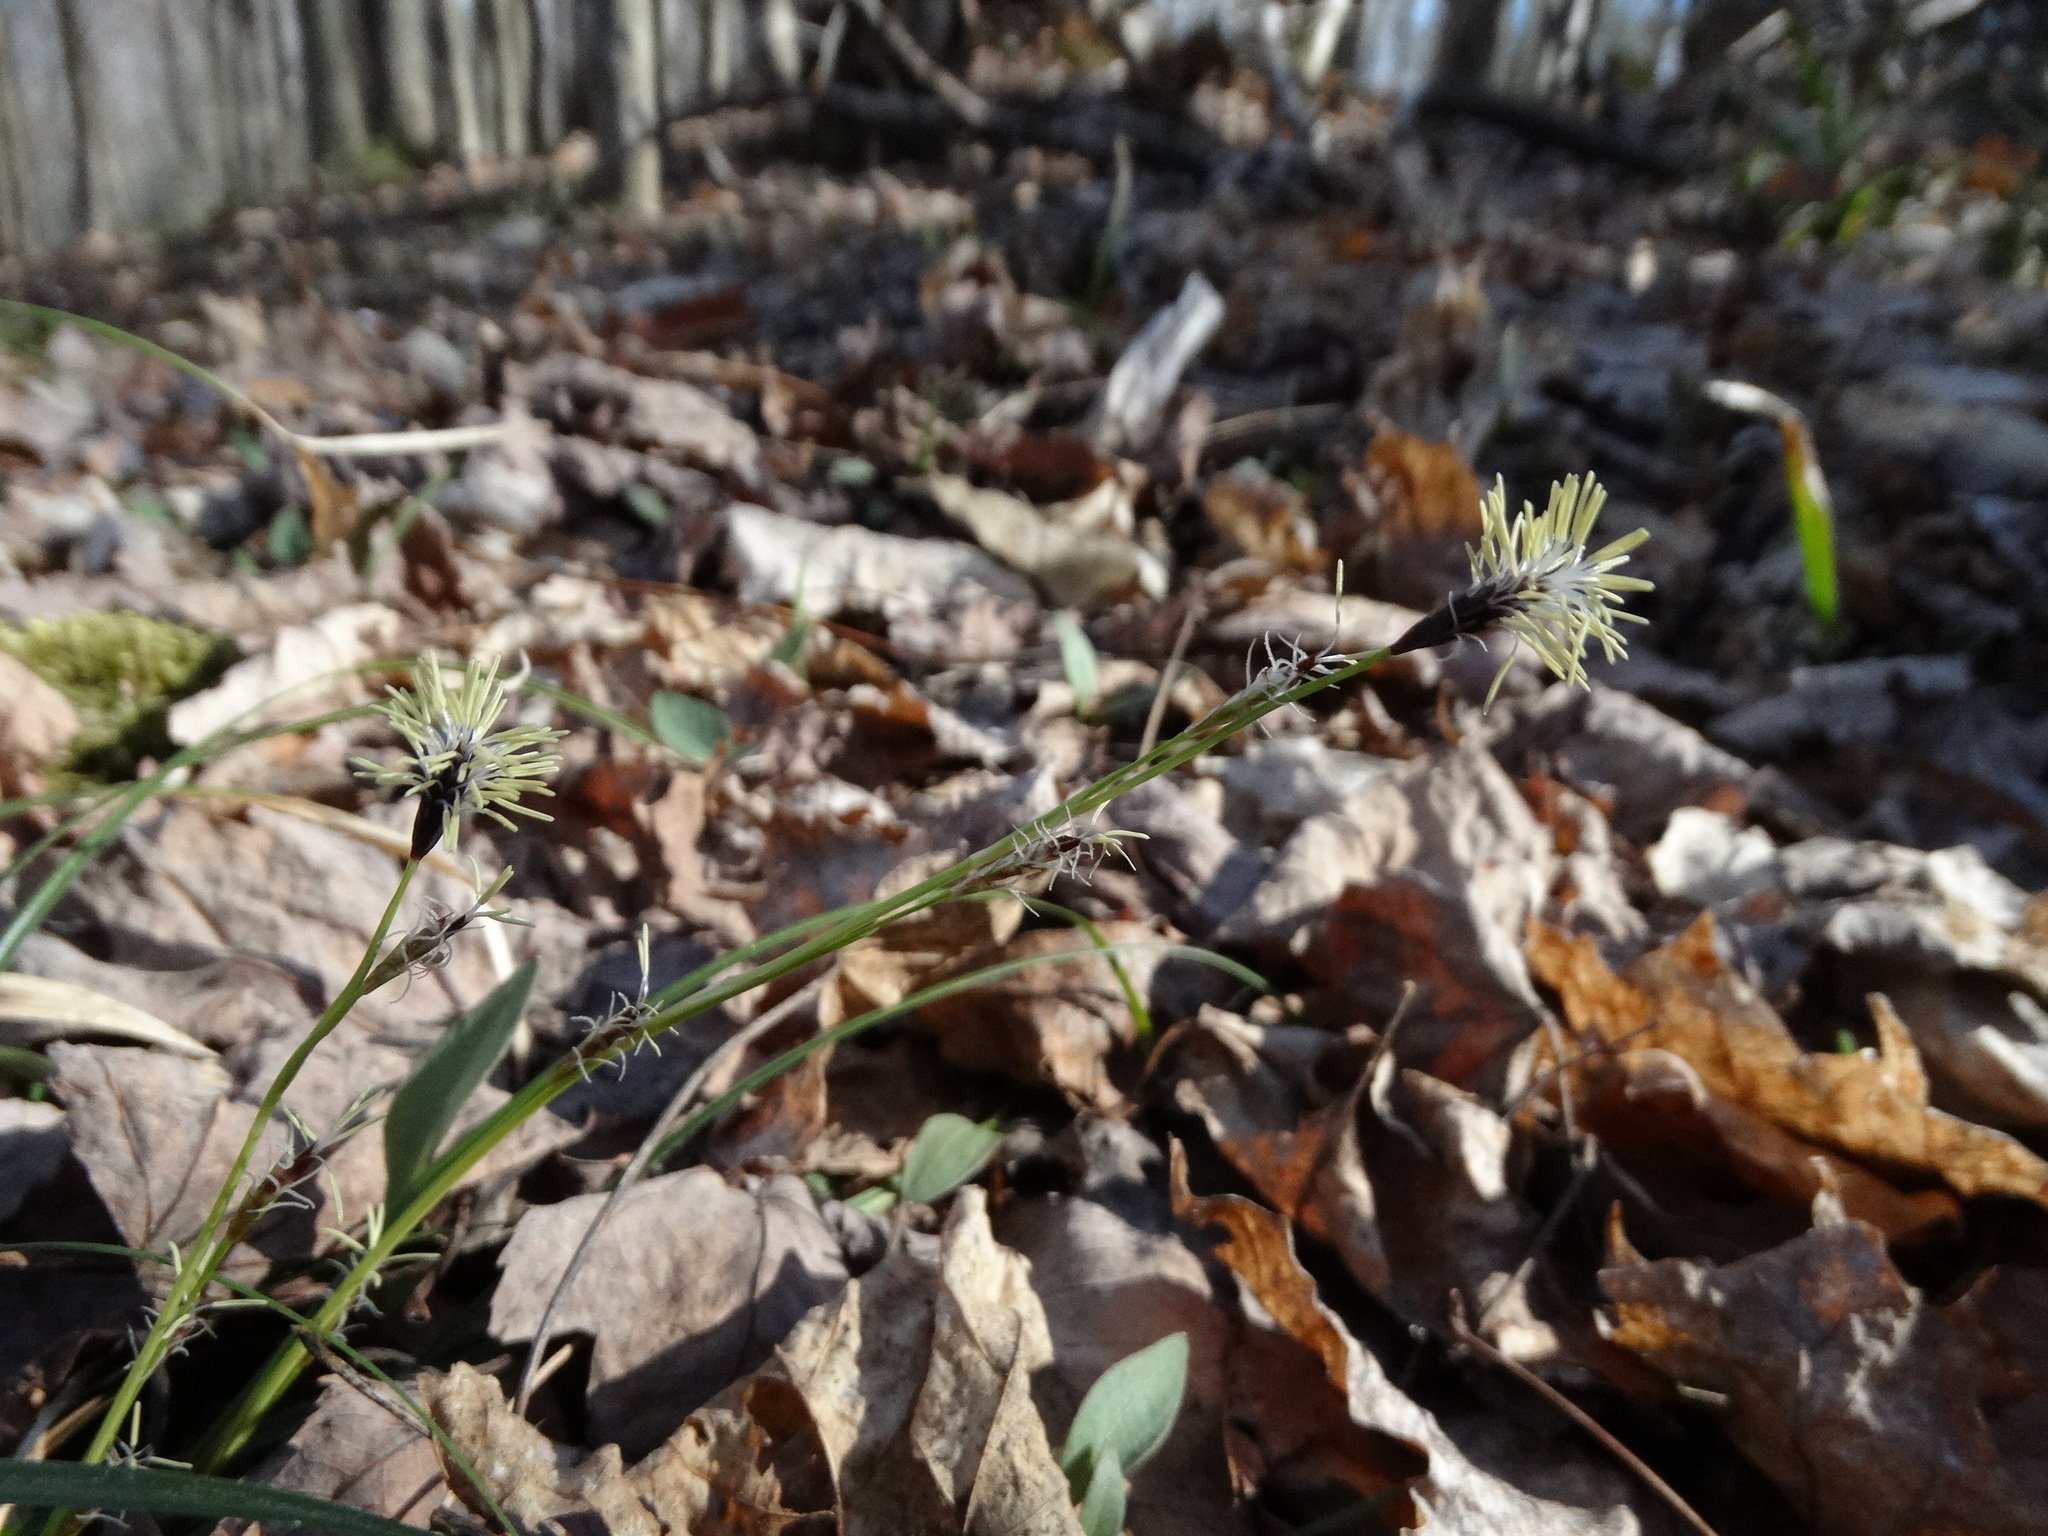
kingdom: Plantae
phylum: Tracheophyta
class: Liliopsida
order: Poales
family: Cyperaceae
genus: Carex
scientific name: Carex pedunculata
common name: Pedunculate sedge
